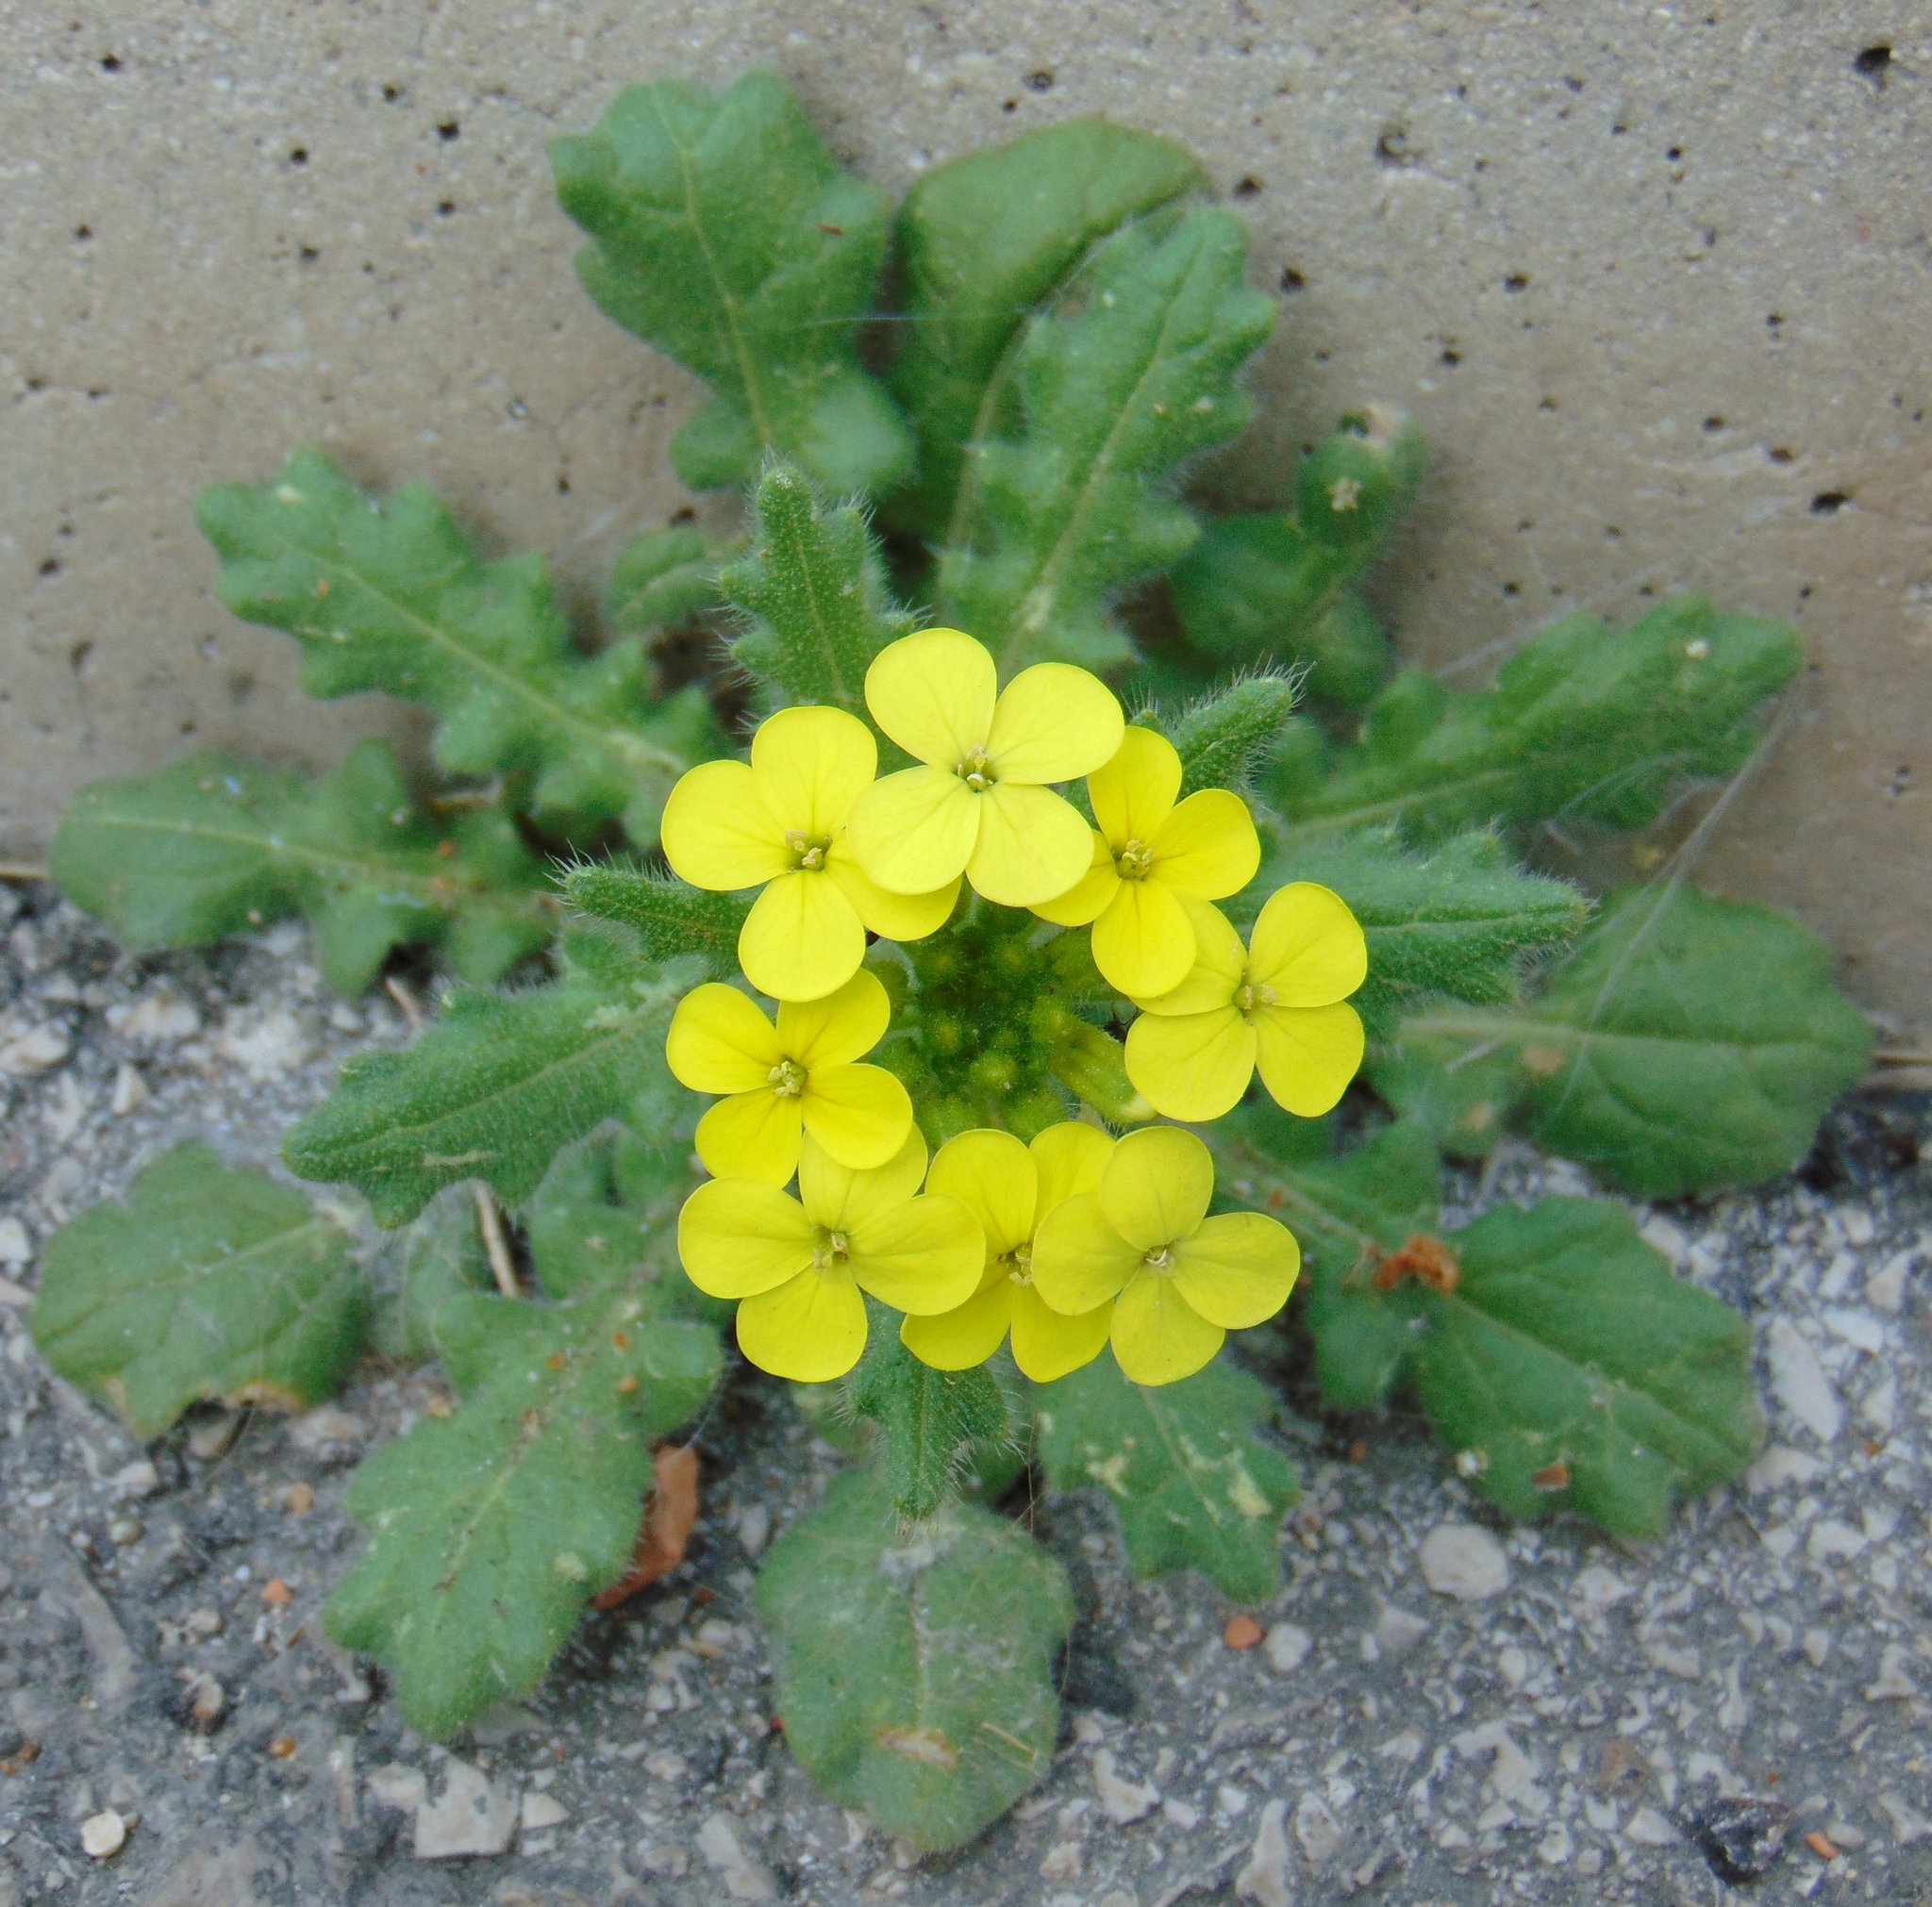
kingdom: Plantae
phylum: Tracheophyta
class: Magnoliopsida
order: Brassicales
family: Brassicaceae
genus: Biscutella
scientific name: Biscutella cichoriifolia
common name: Chicory-leaf buckler mustard
